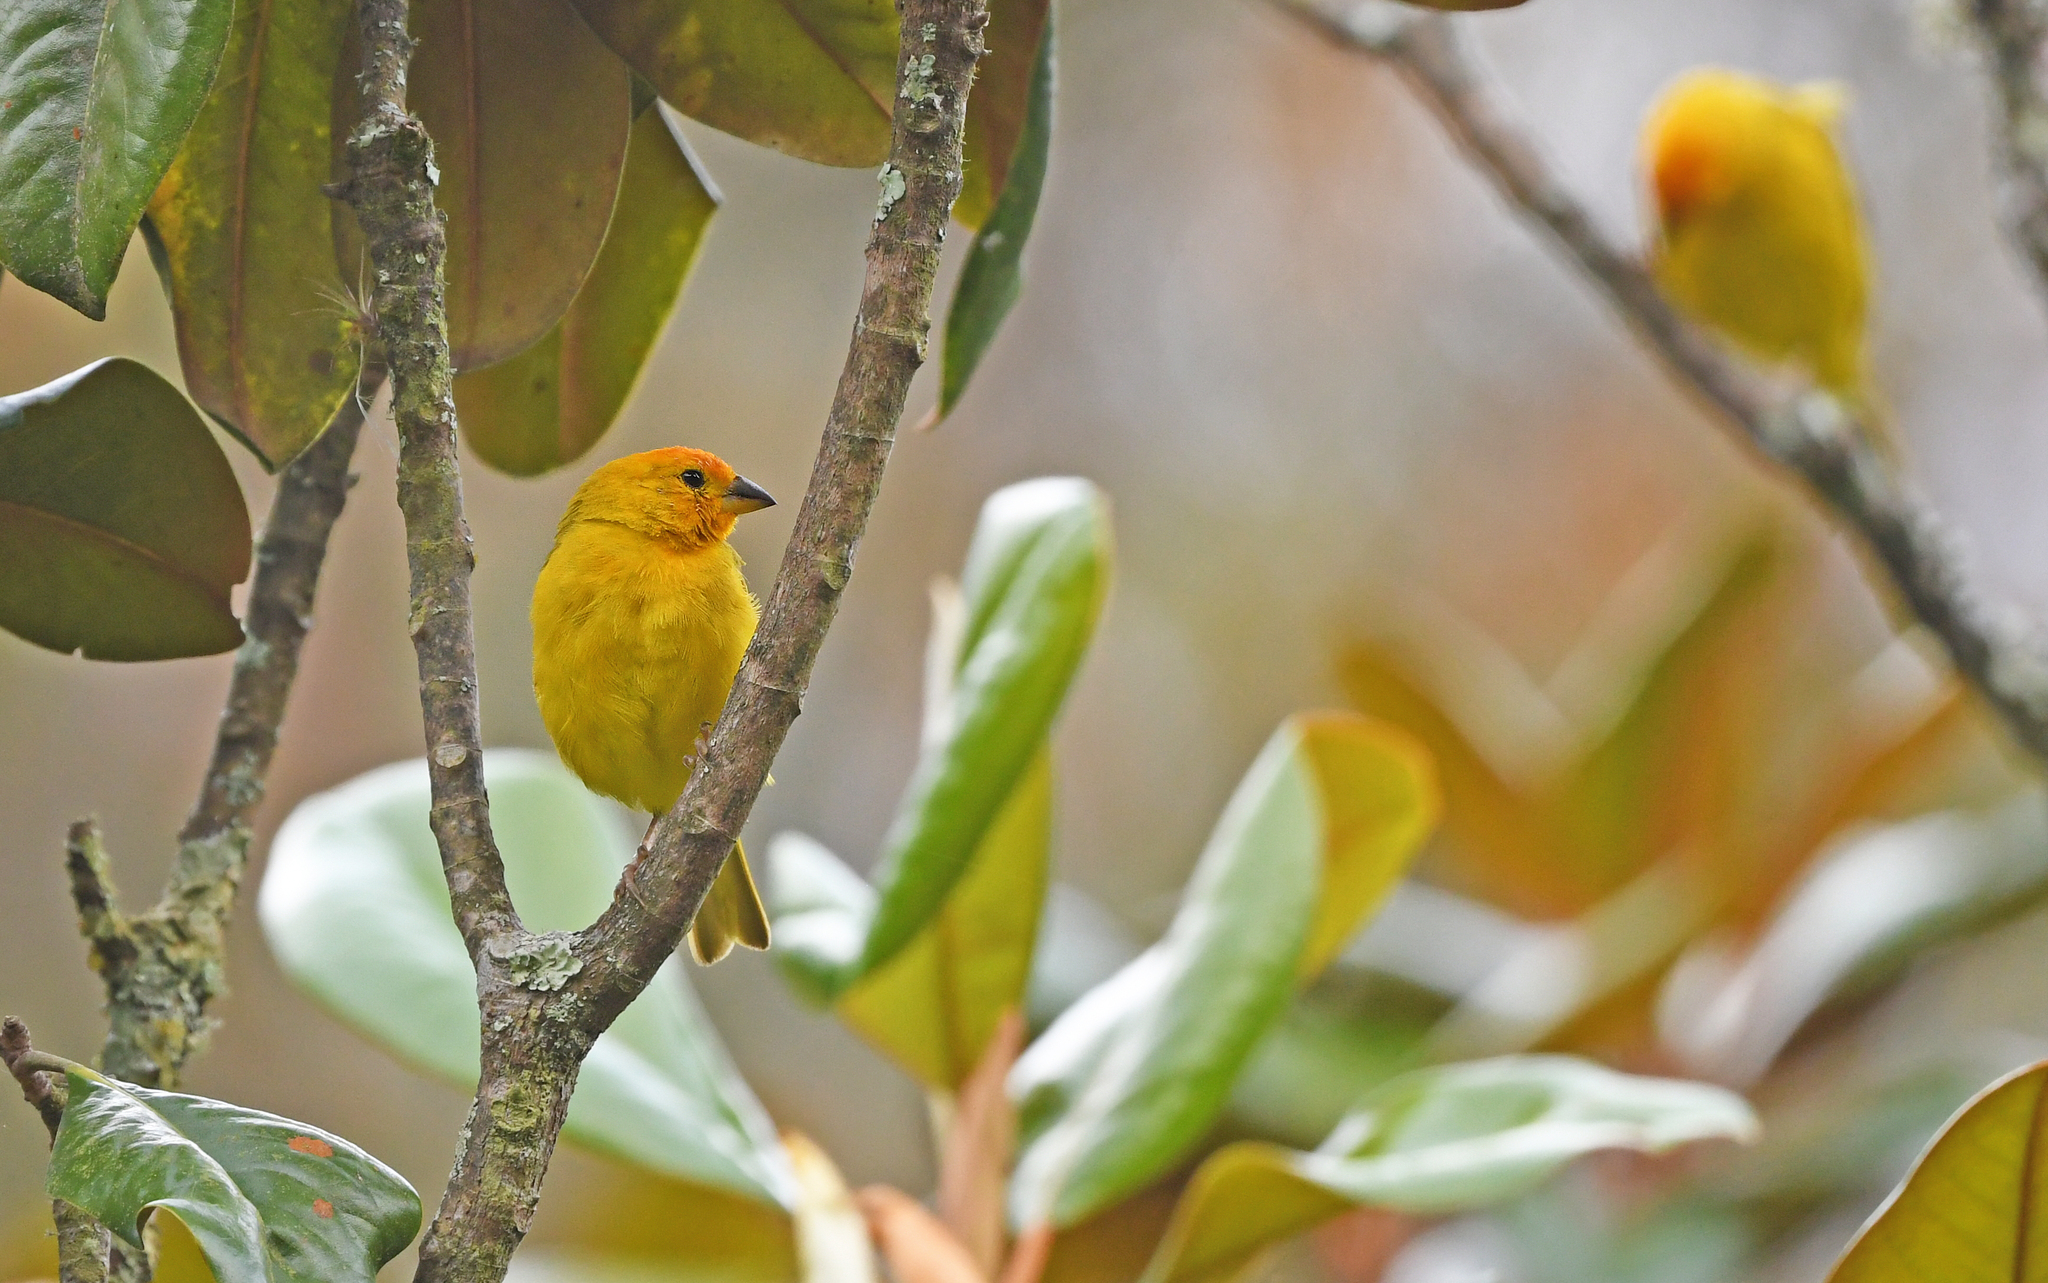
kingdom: Animalia
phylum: Chordata
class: Aves
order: Passeriformes
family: Thraupidae
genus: Sicalis
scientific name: Sicalis flaveola
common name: Saffron finch
